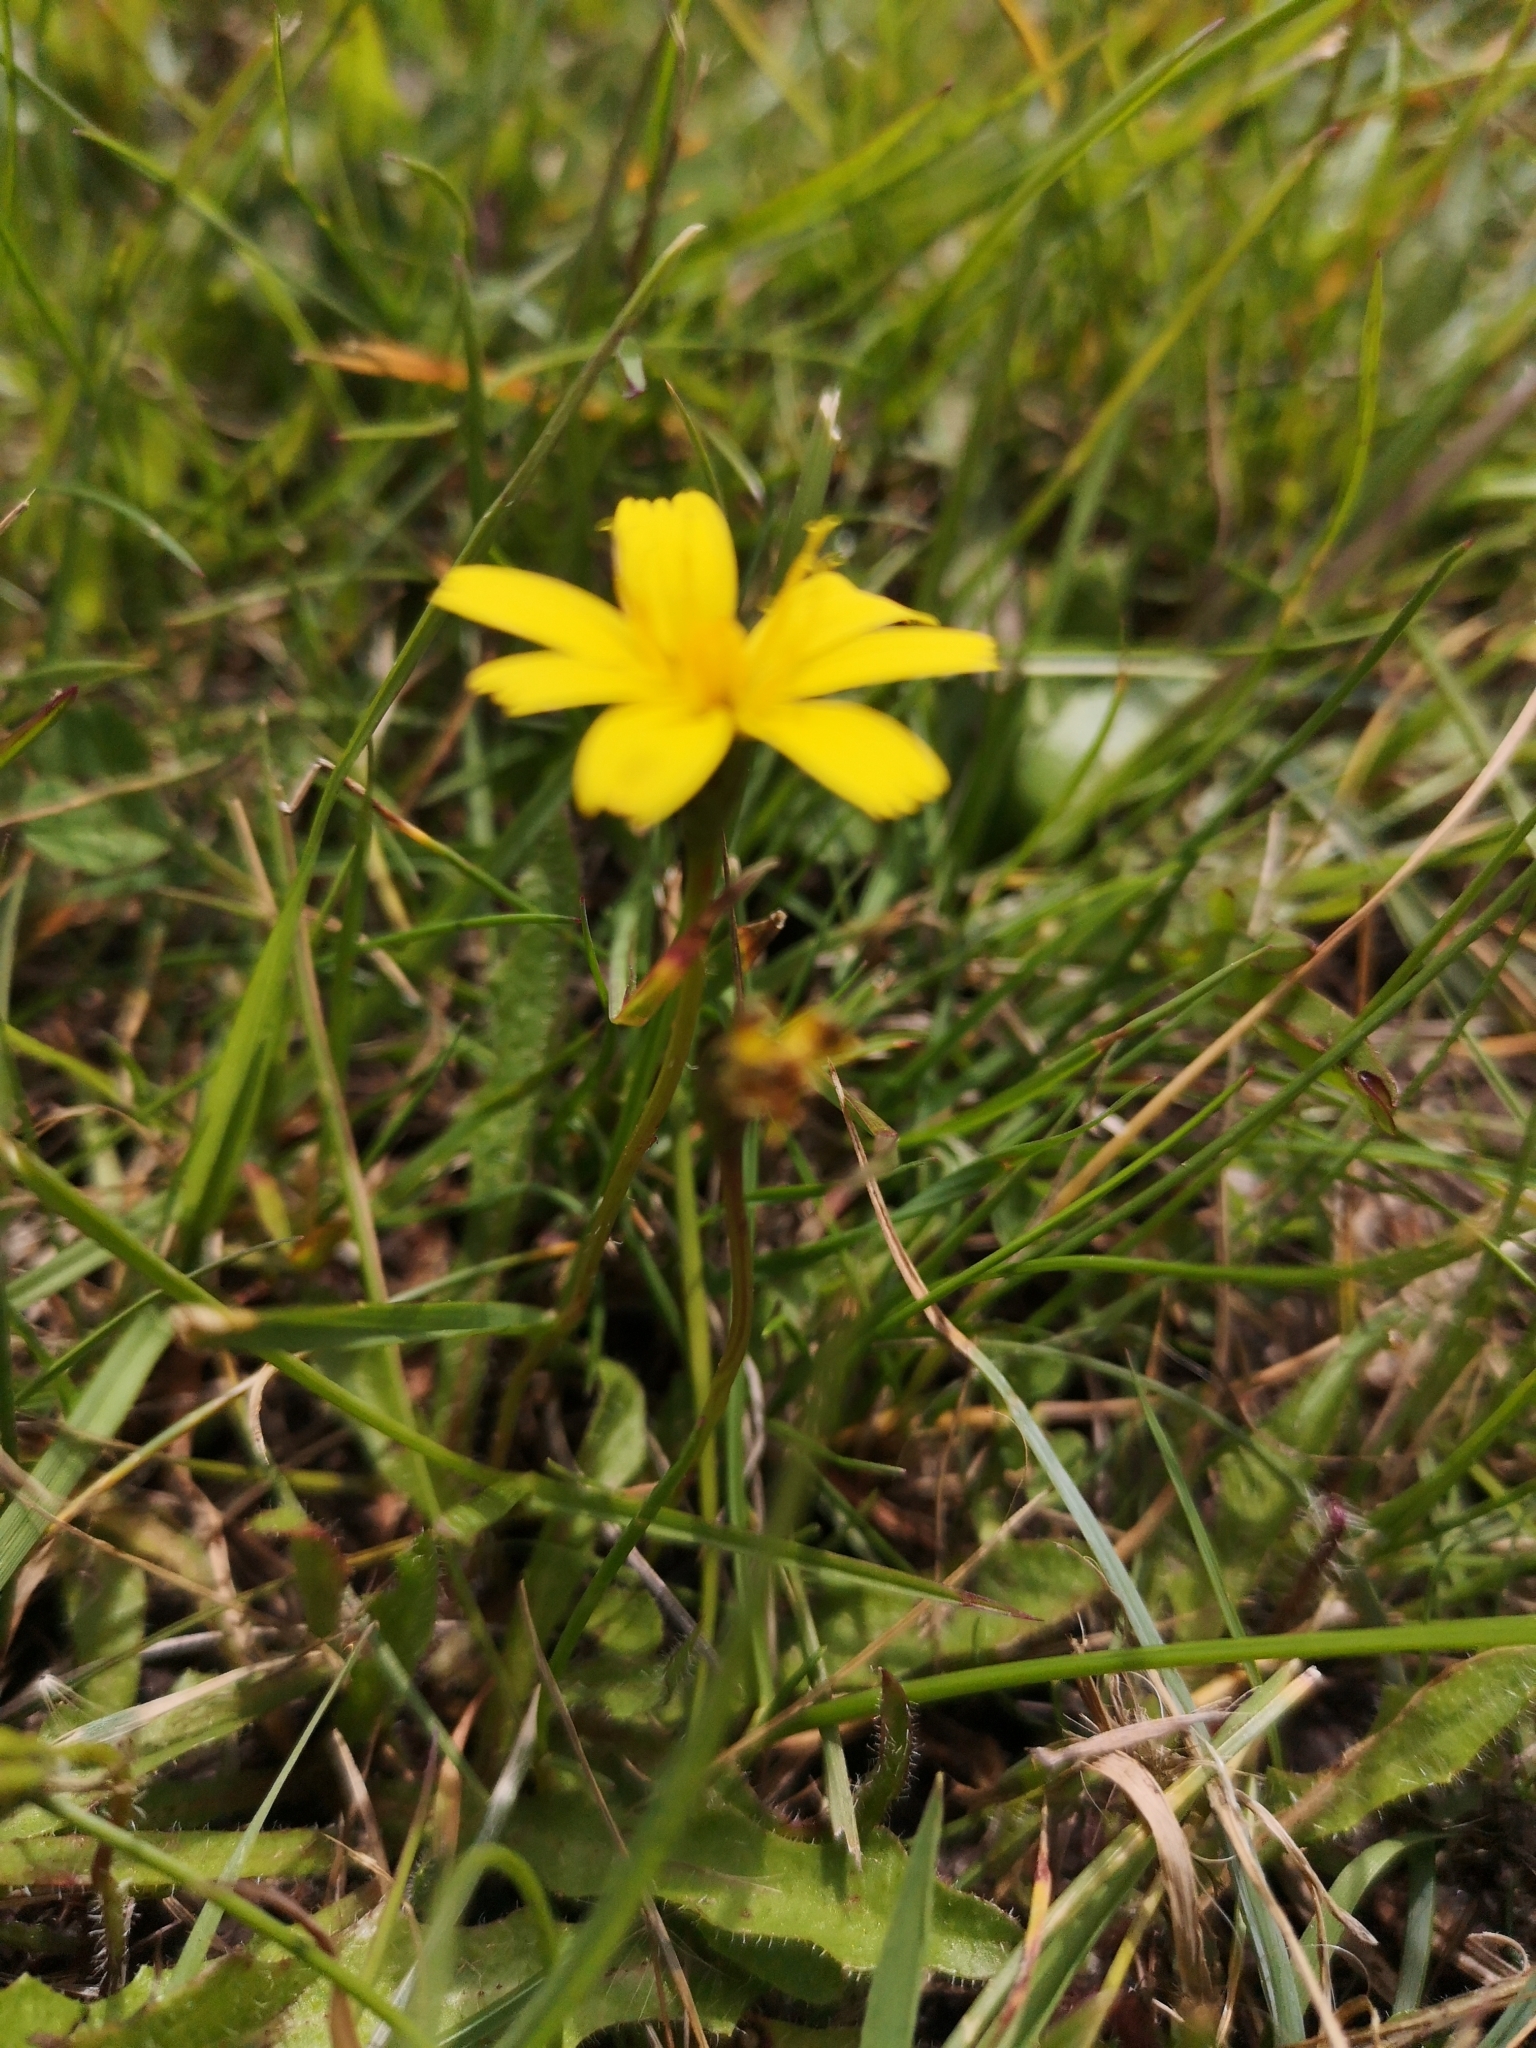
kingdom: Plantae
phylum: Tracheophyta
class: Magnoliopsida
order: Asterales
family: Asteraceae
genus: Lapsana
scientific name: Lapsana communis
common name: Nipplewort
